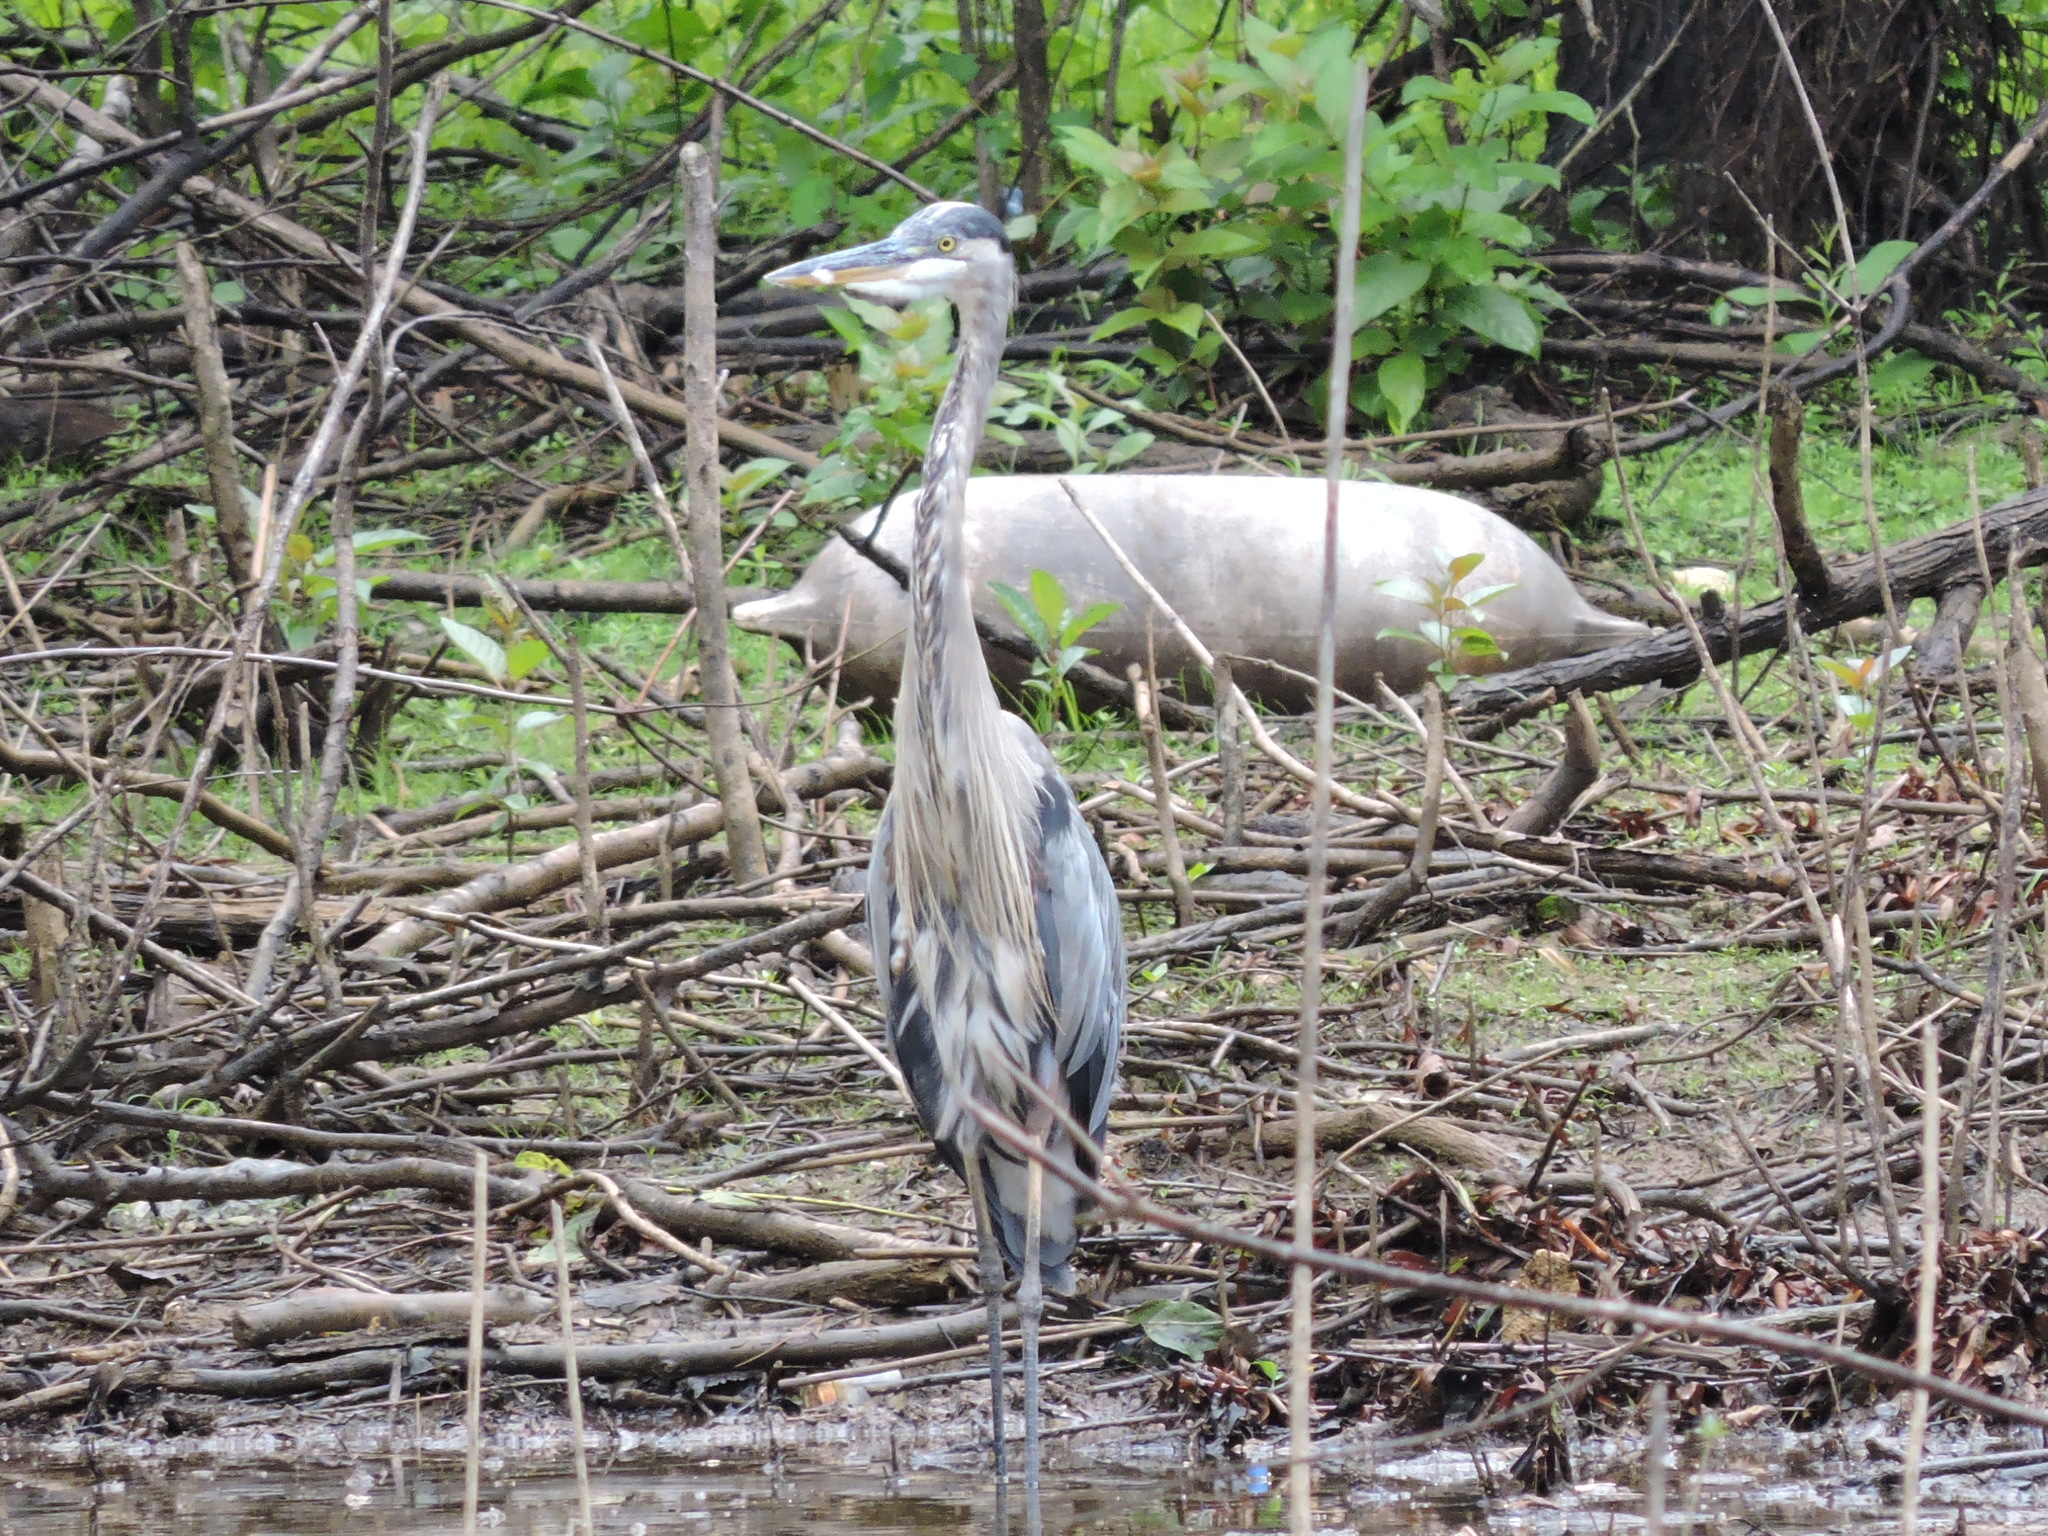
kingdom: Animalia
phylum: Chordata
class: Aves
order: Pelecaniformes
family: Ardeidae
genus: Ardea
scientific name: Ardea herodias
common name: Great blue heron
